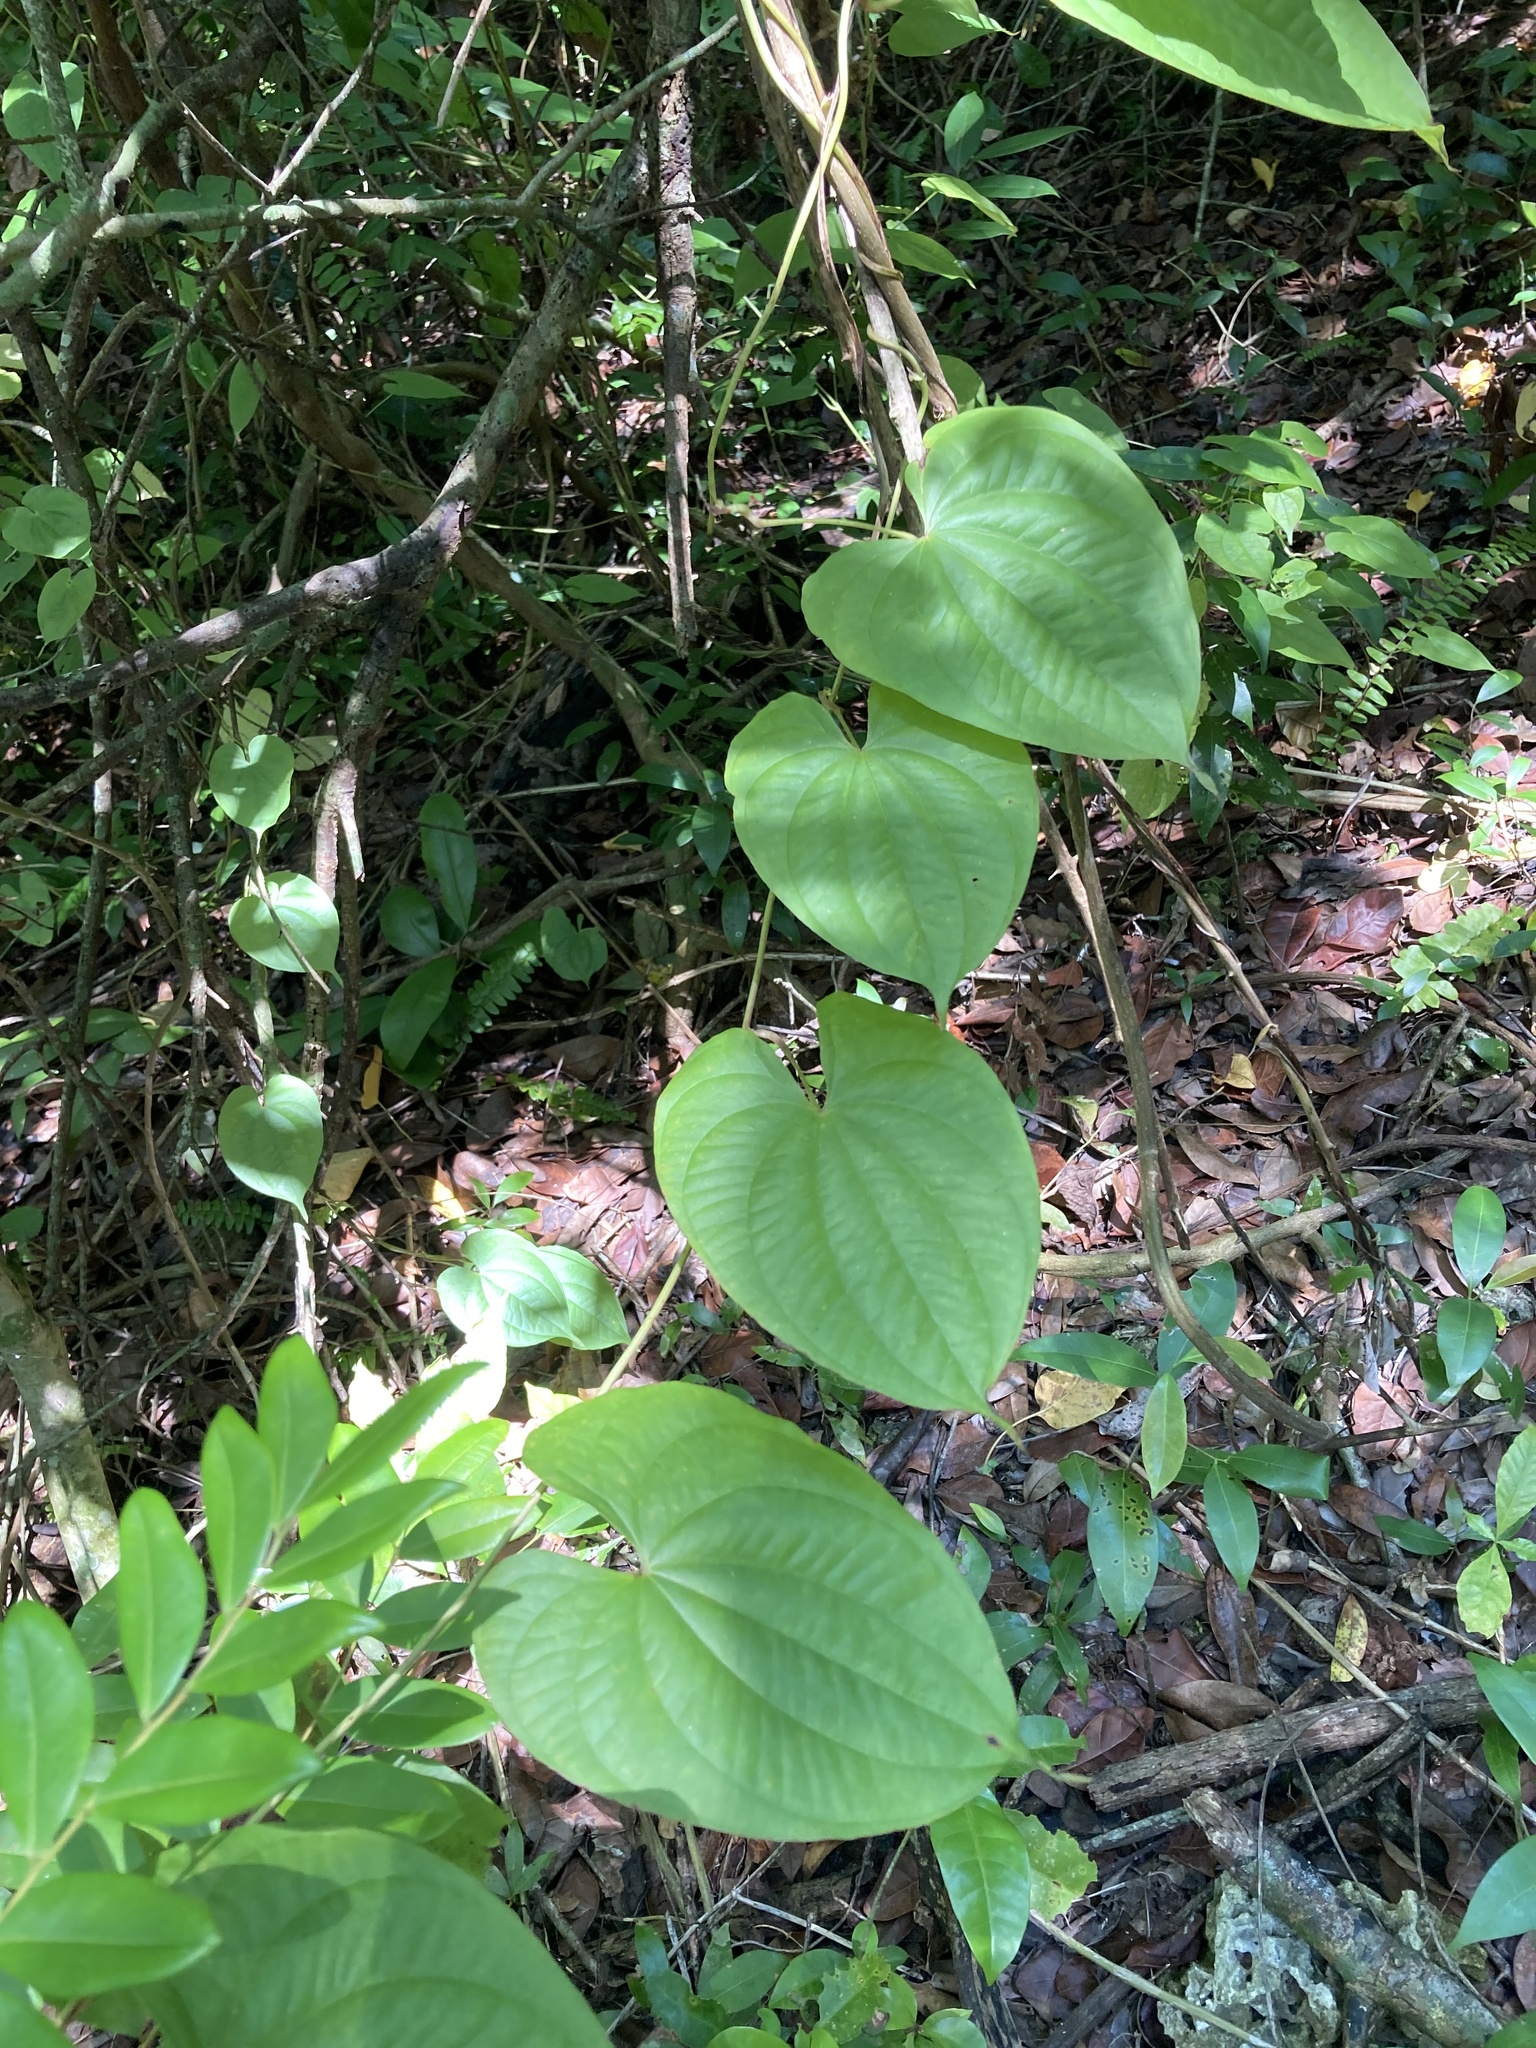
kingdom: Plantae
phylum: Tracheophyta
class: Liliopsida
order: Dioscoreales
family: Dioscoreaceae
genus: Dioscorea
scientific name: Dioscorea bulbifera
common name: Air yam
